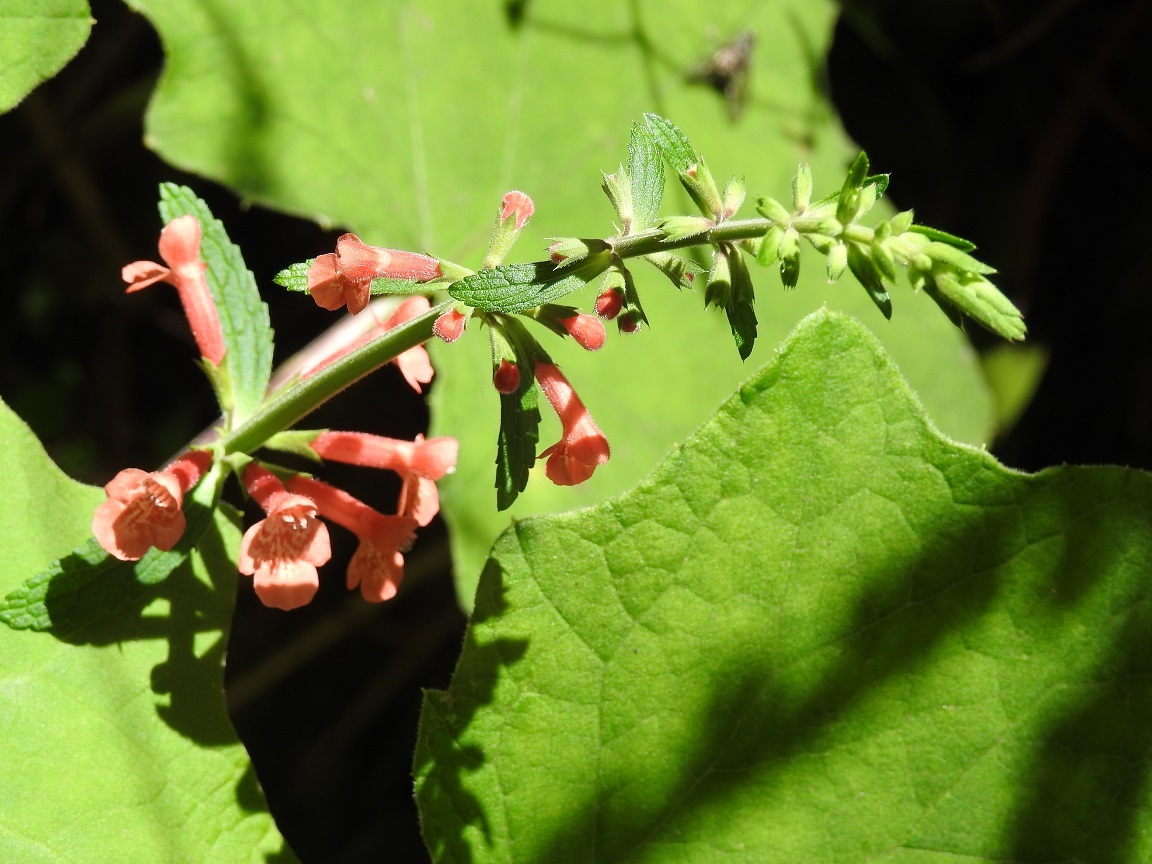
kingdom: Plantae
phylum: Tracheophyta
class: Magnoliopsida
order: Lamiales
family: Lamiaceae
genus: Stachys
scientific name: Stachys coccinea
